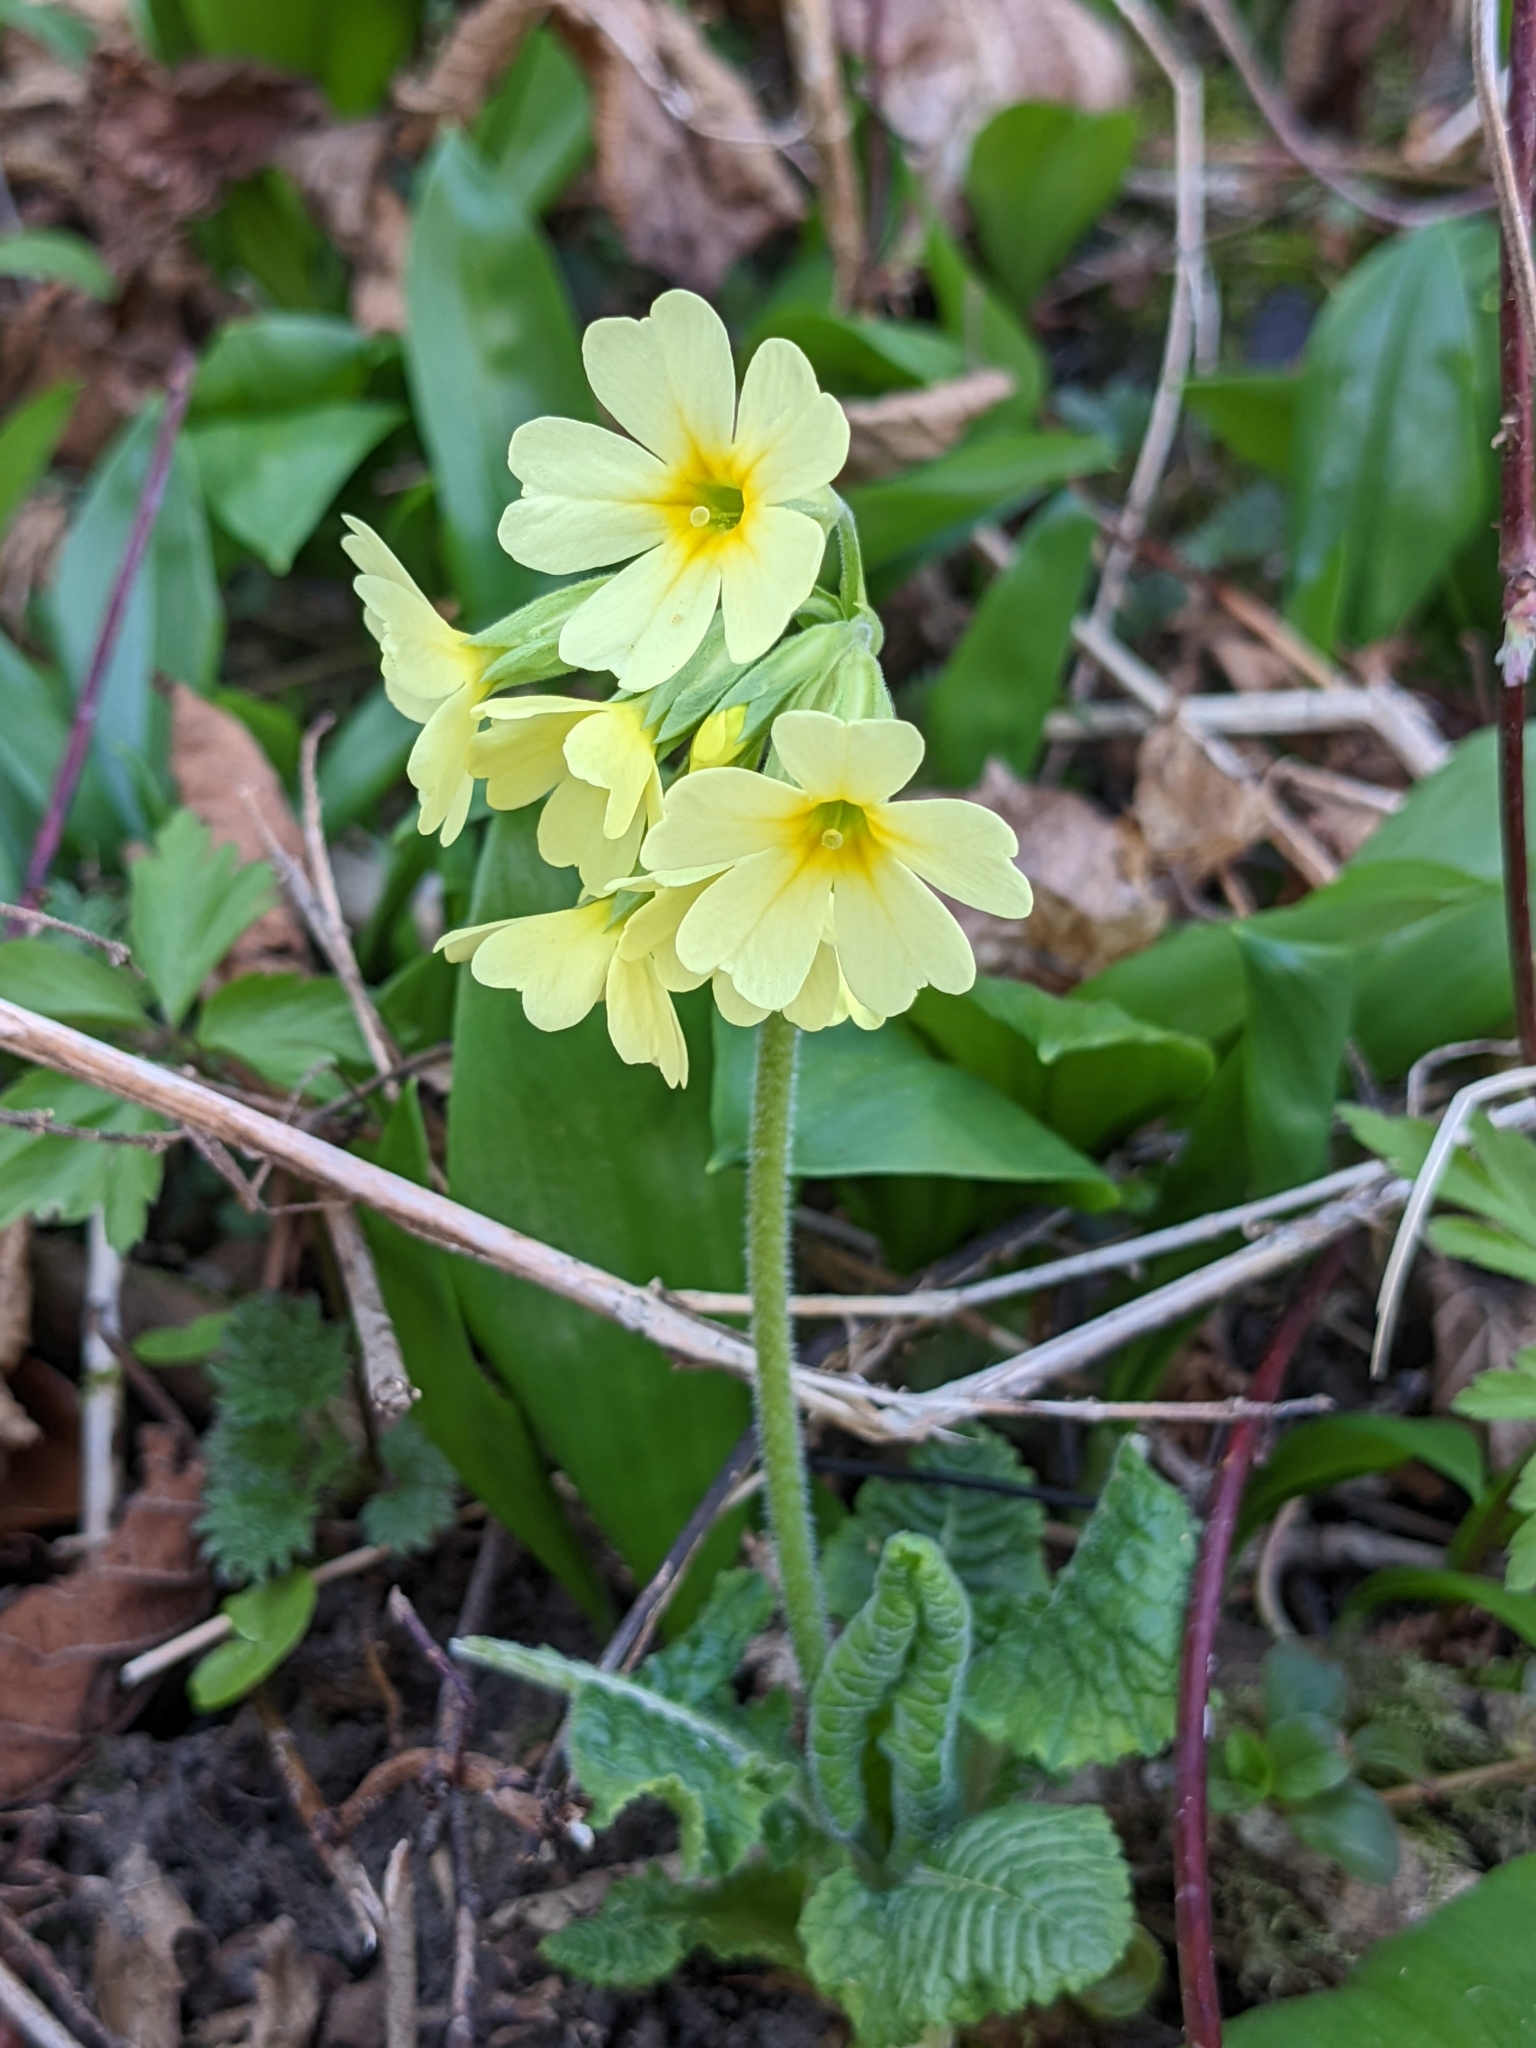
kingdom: Plantae
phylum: Tracheophyta
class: Magnoliopsida
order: Ericales
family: Primulaceae
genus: Primula
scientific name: Primula elatior
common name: Oxlip
